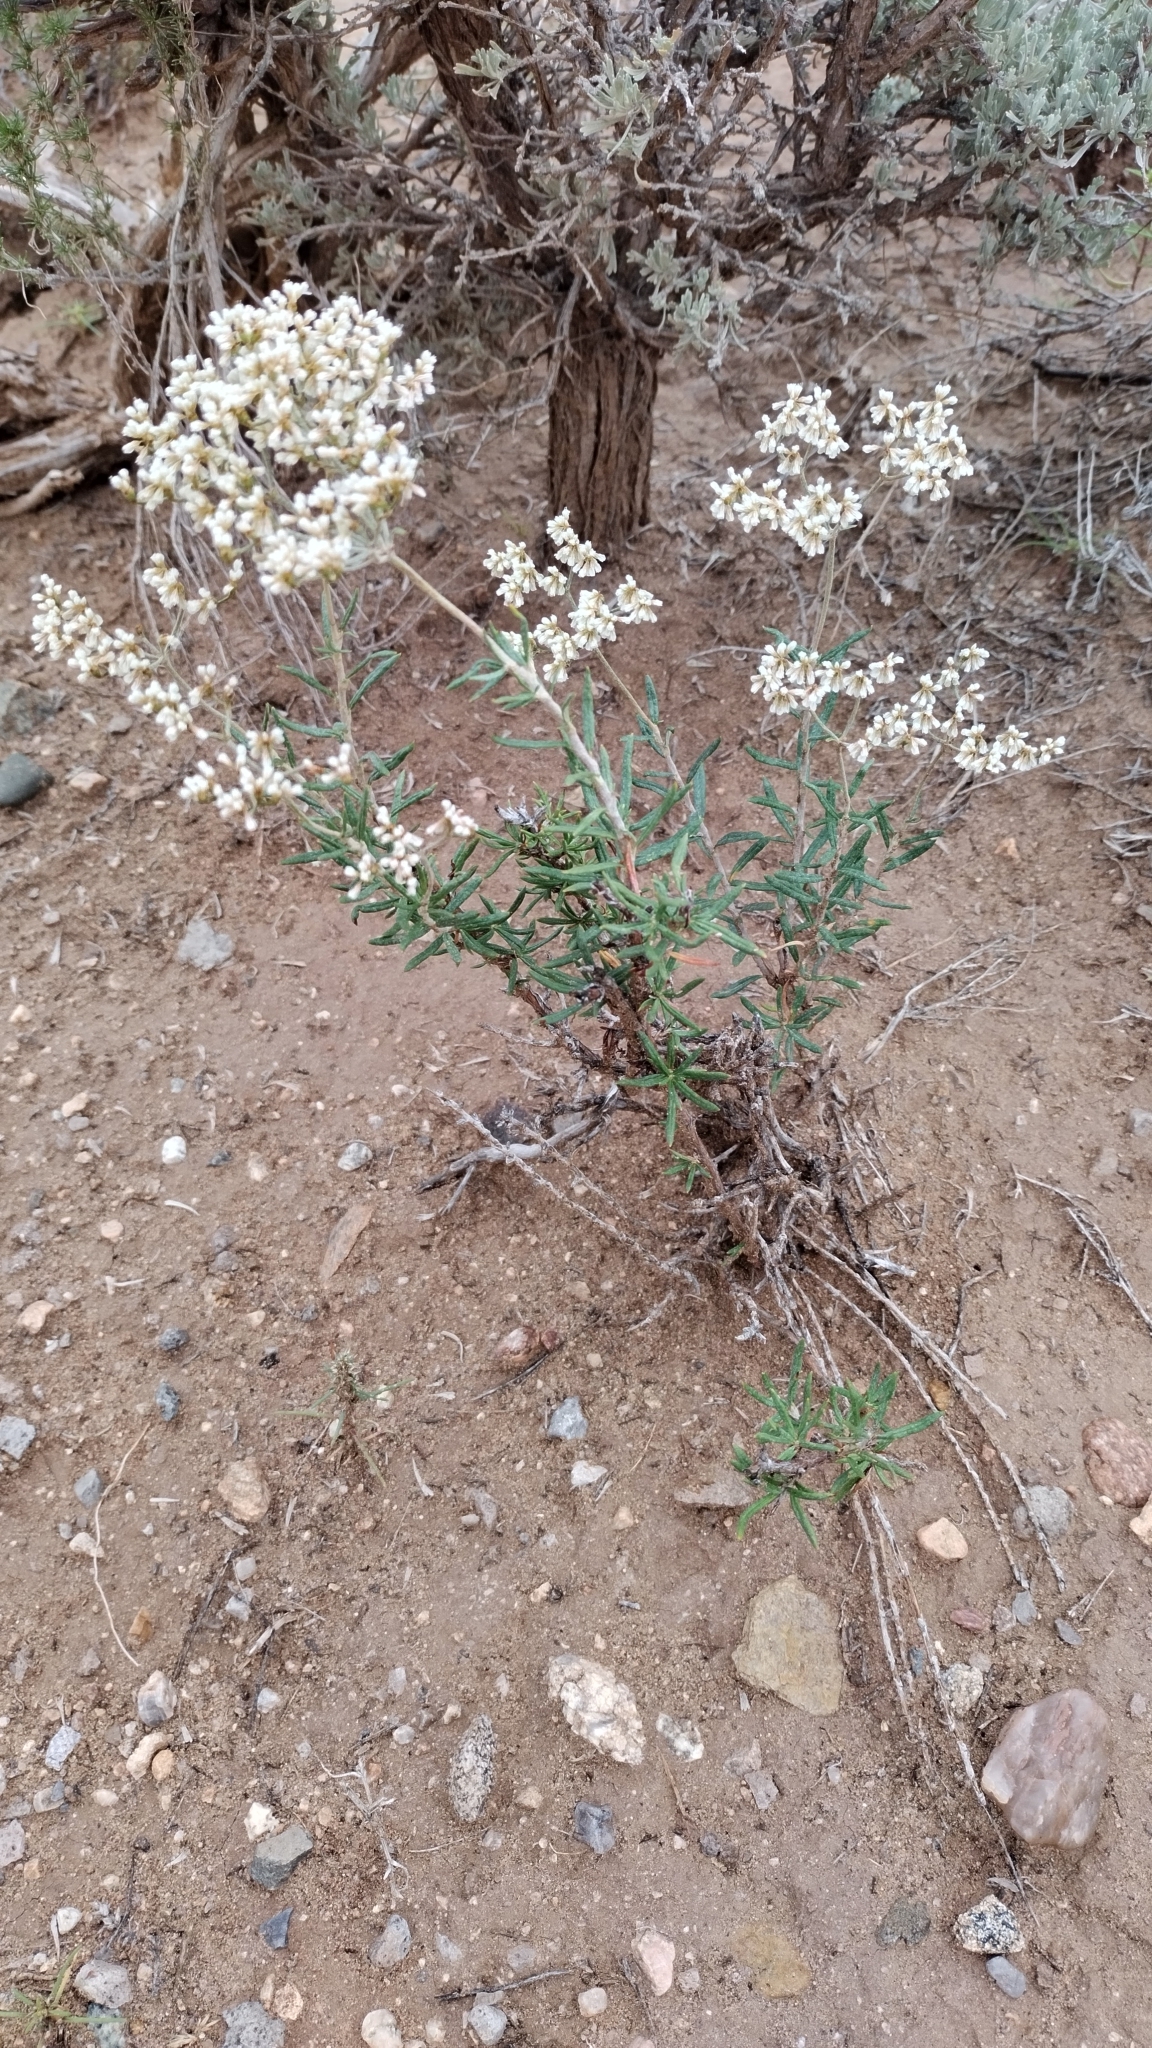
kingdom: Plantae
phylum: Tracheophyta
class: Magnoliopsida
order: Caryophyllales
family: Polygonaceae
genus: Eriogonum
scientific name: Eriogonum microtheca
